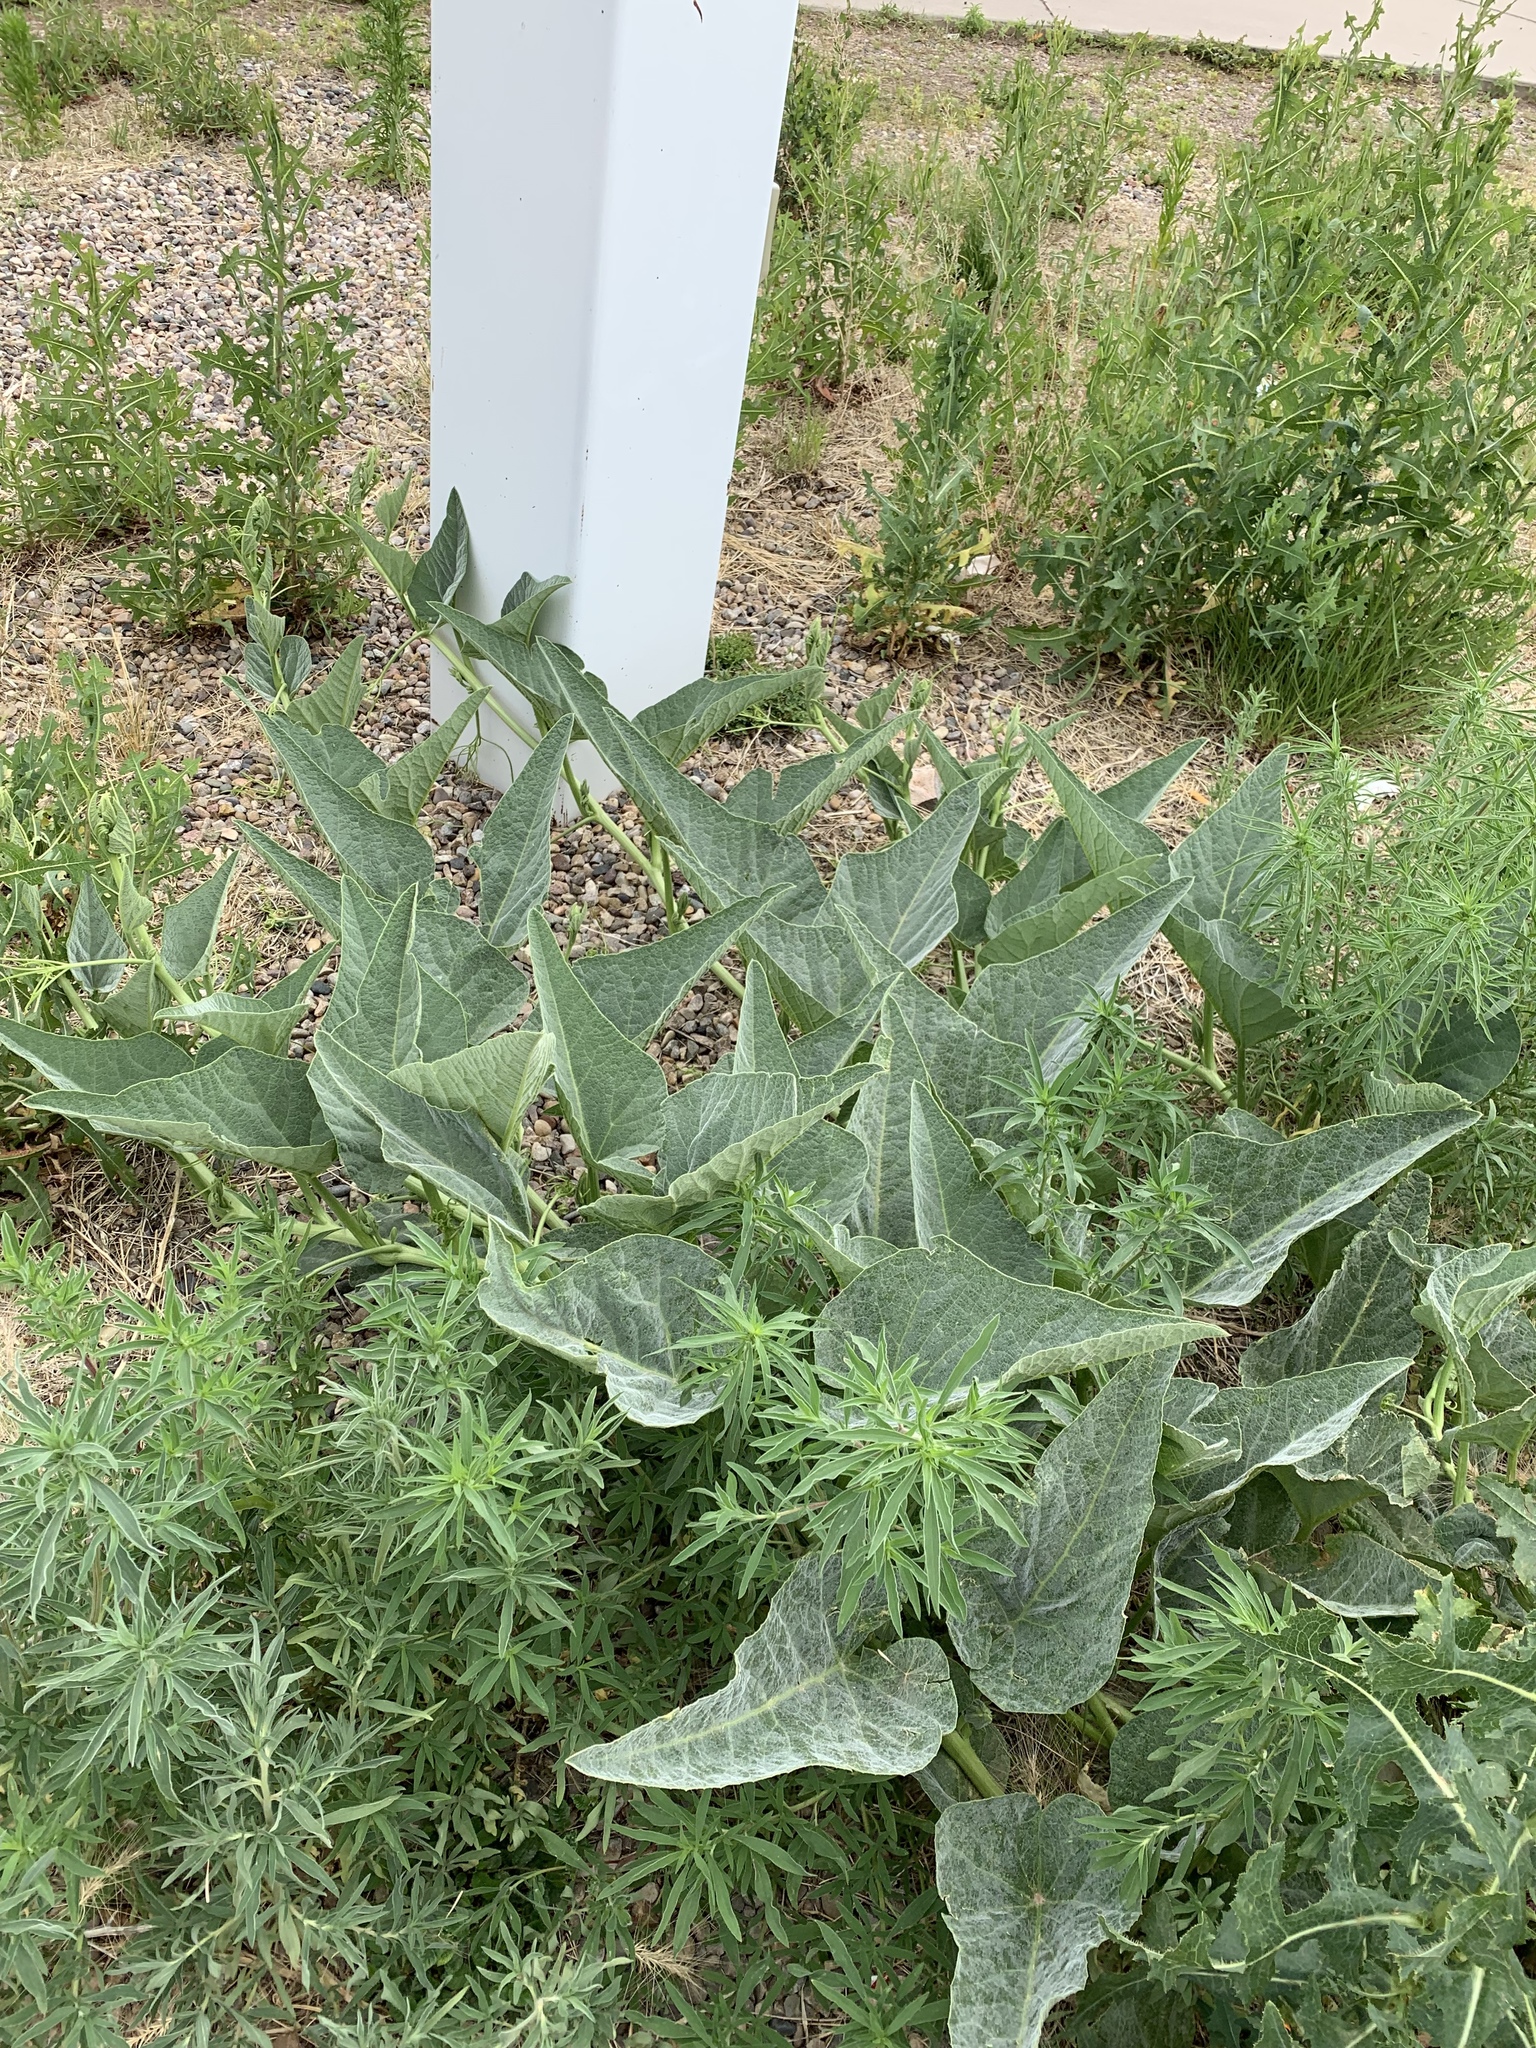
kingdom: Plantae
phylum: Tracheophyta
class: Magnoliopsida
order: Cucurbitales
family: Cucurbitaceae
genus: Cucurbita
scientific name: Cucurbita foetidissima
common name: Buffalo gourd
